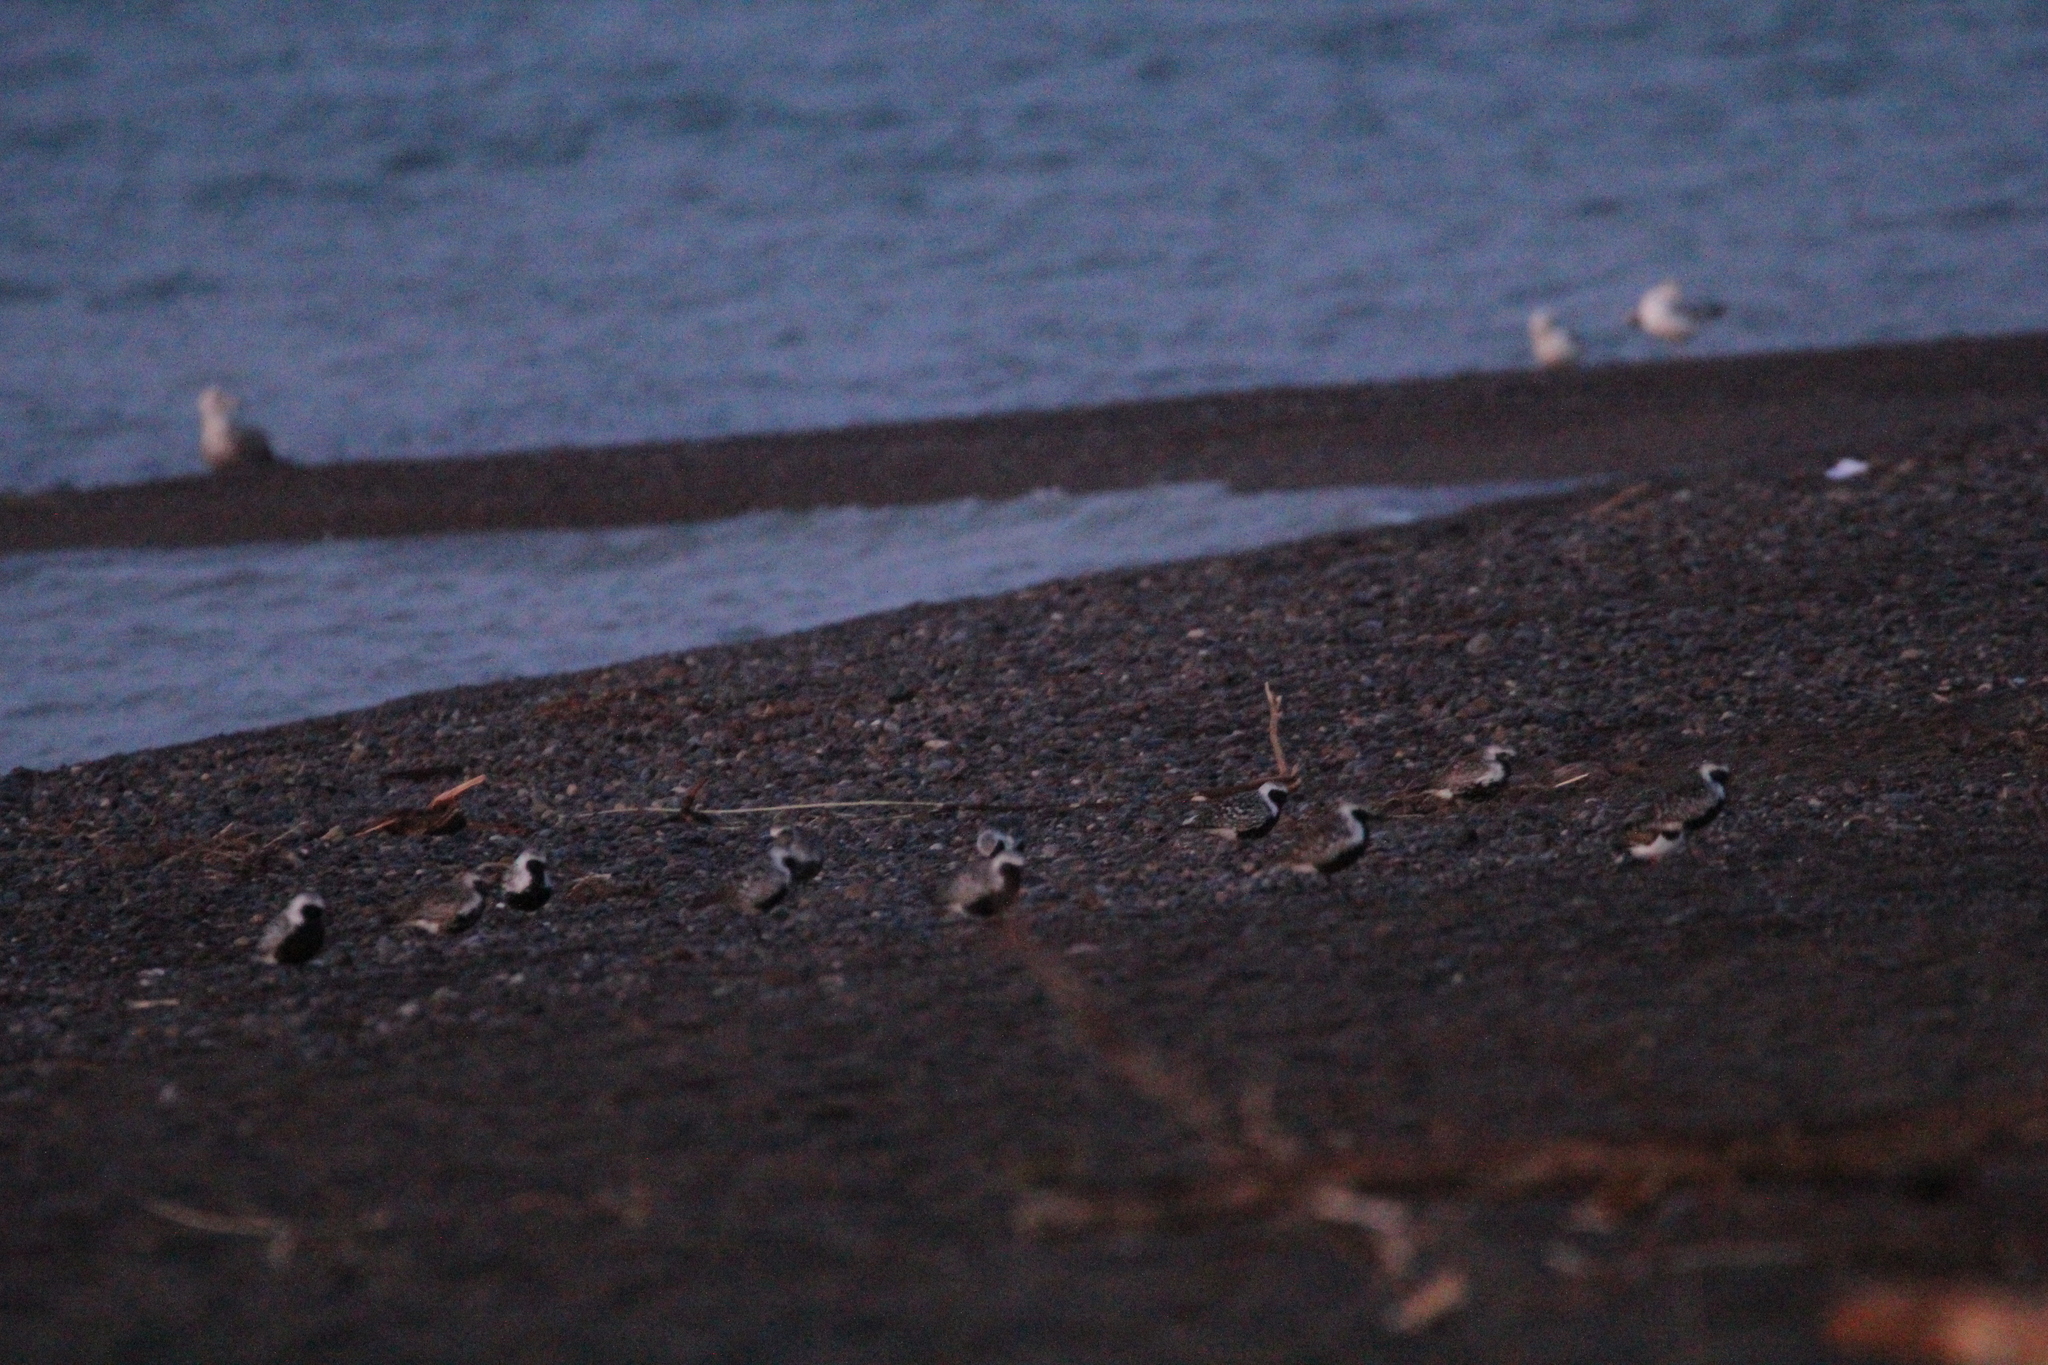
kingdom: Animalia
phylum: Chordata
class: Aves
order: Charadriiformes
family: Charadriidae
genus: Pluvialis
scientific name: Pluvialis squatarola
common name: Grey plover
